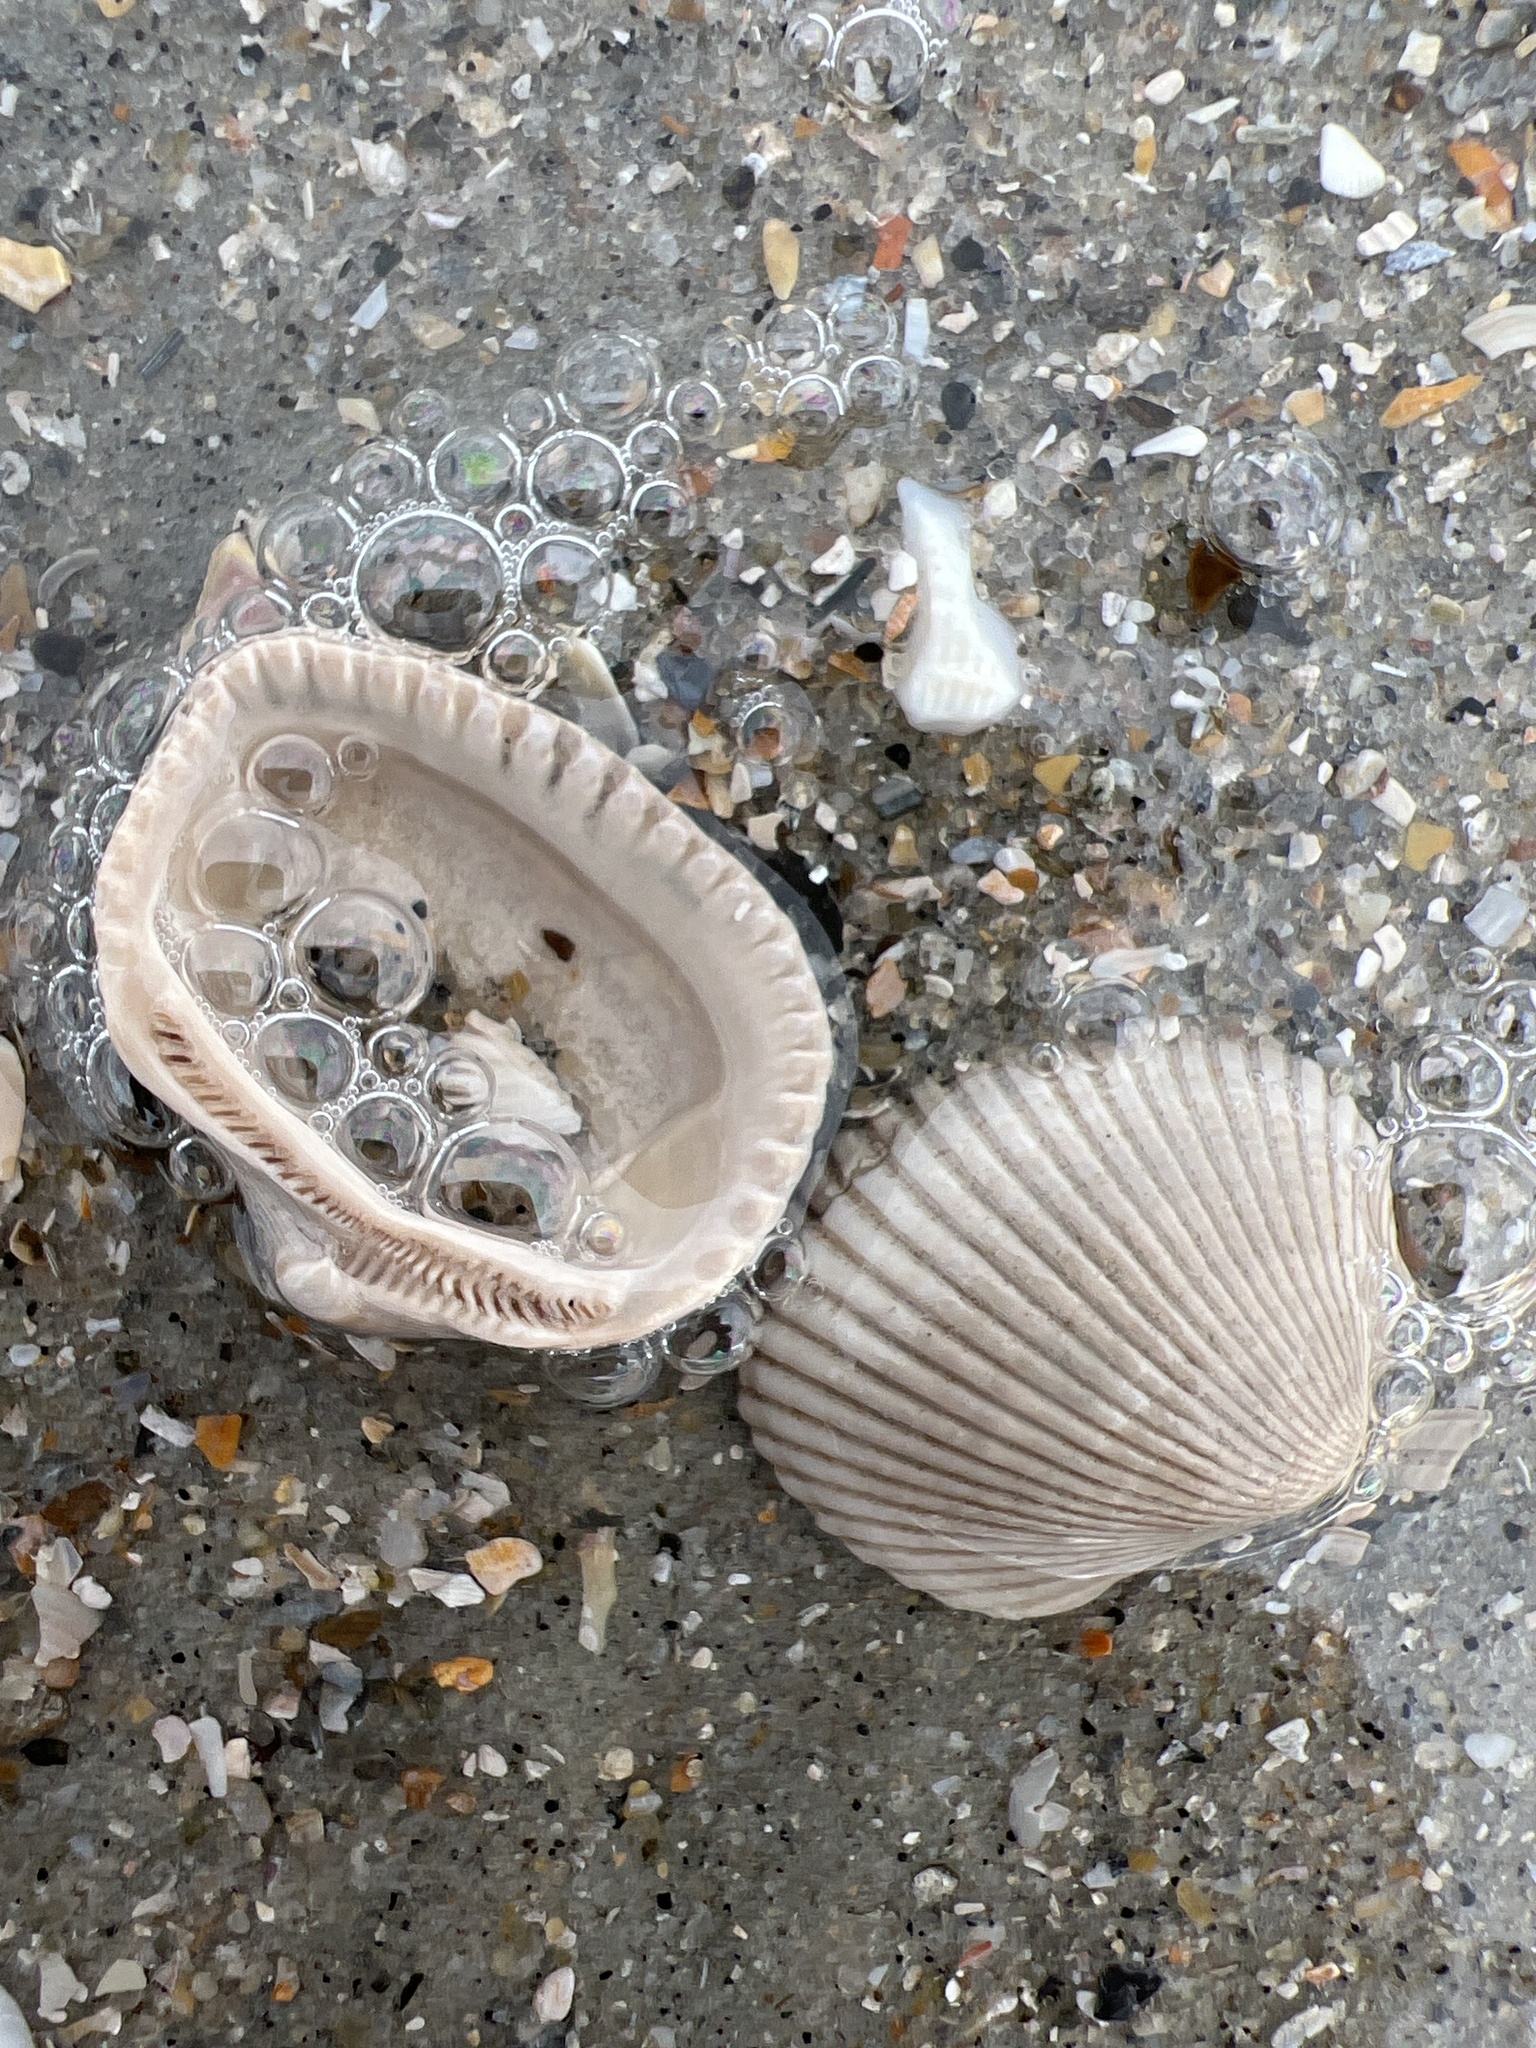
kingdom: Animalia
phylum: Mollusca
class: Bivalvia
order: Arcida
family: Noetiidae
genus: Noetia
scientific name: Noetia ponderosa
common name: Ponderous ark
